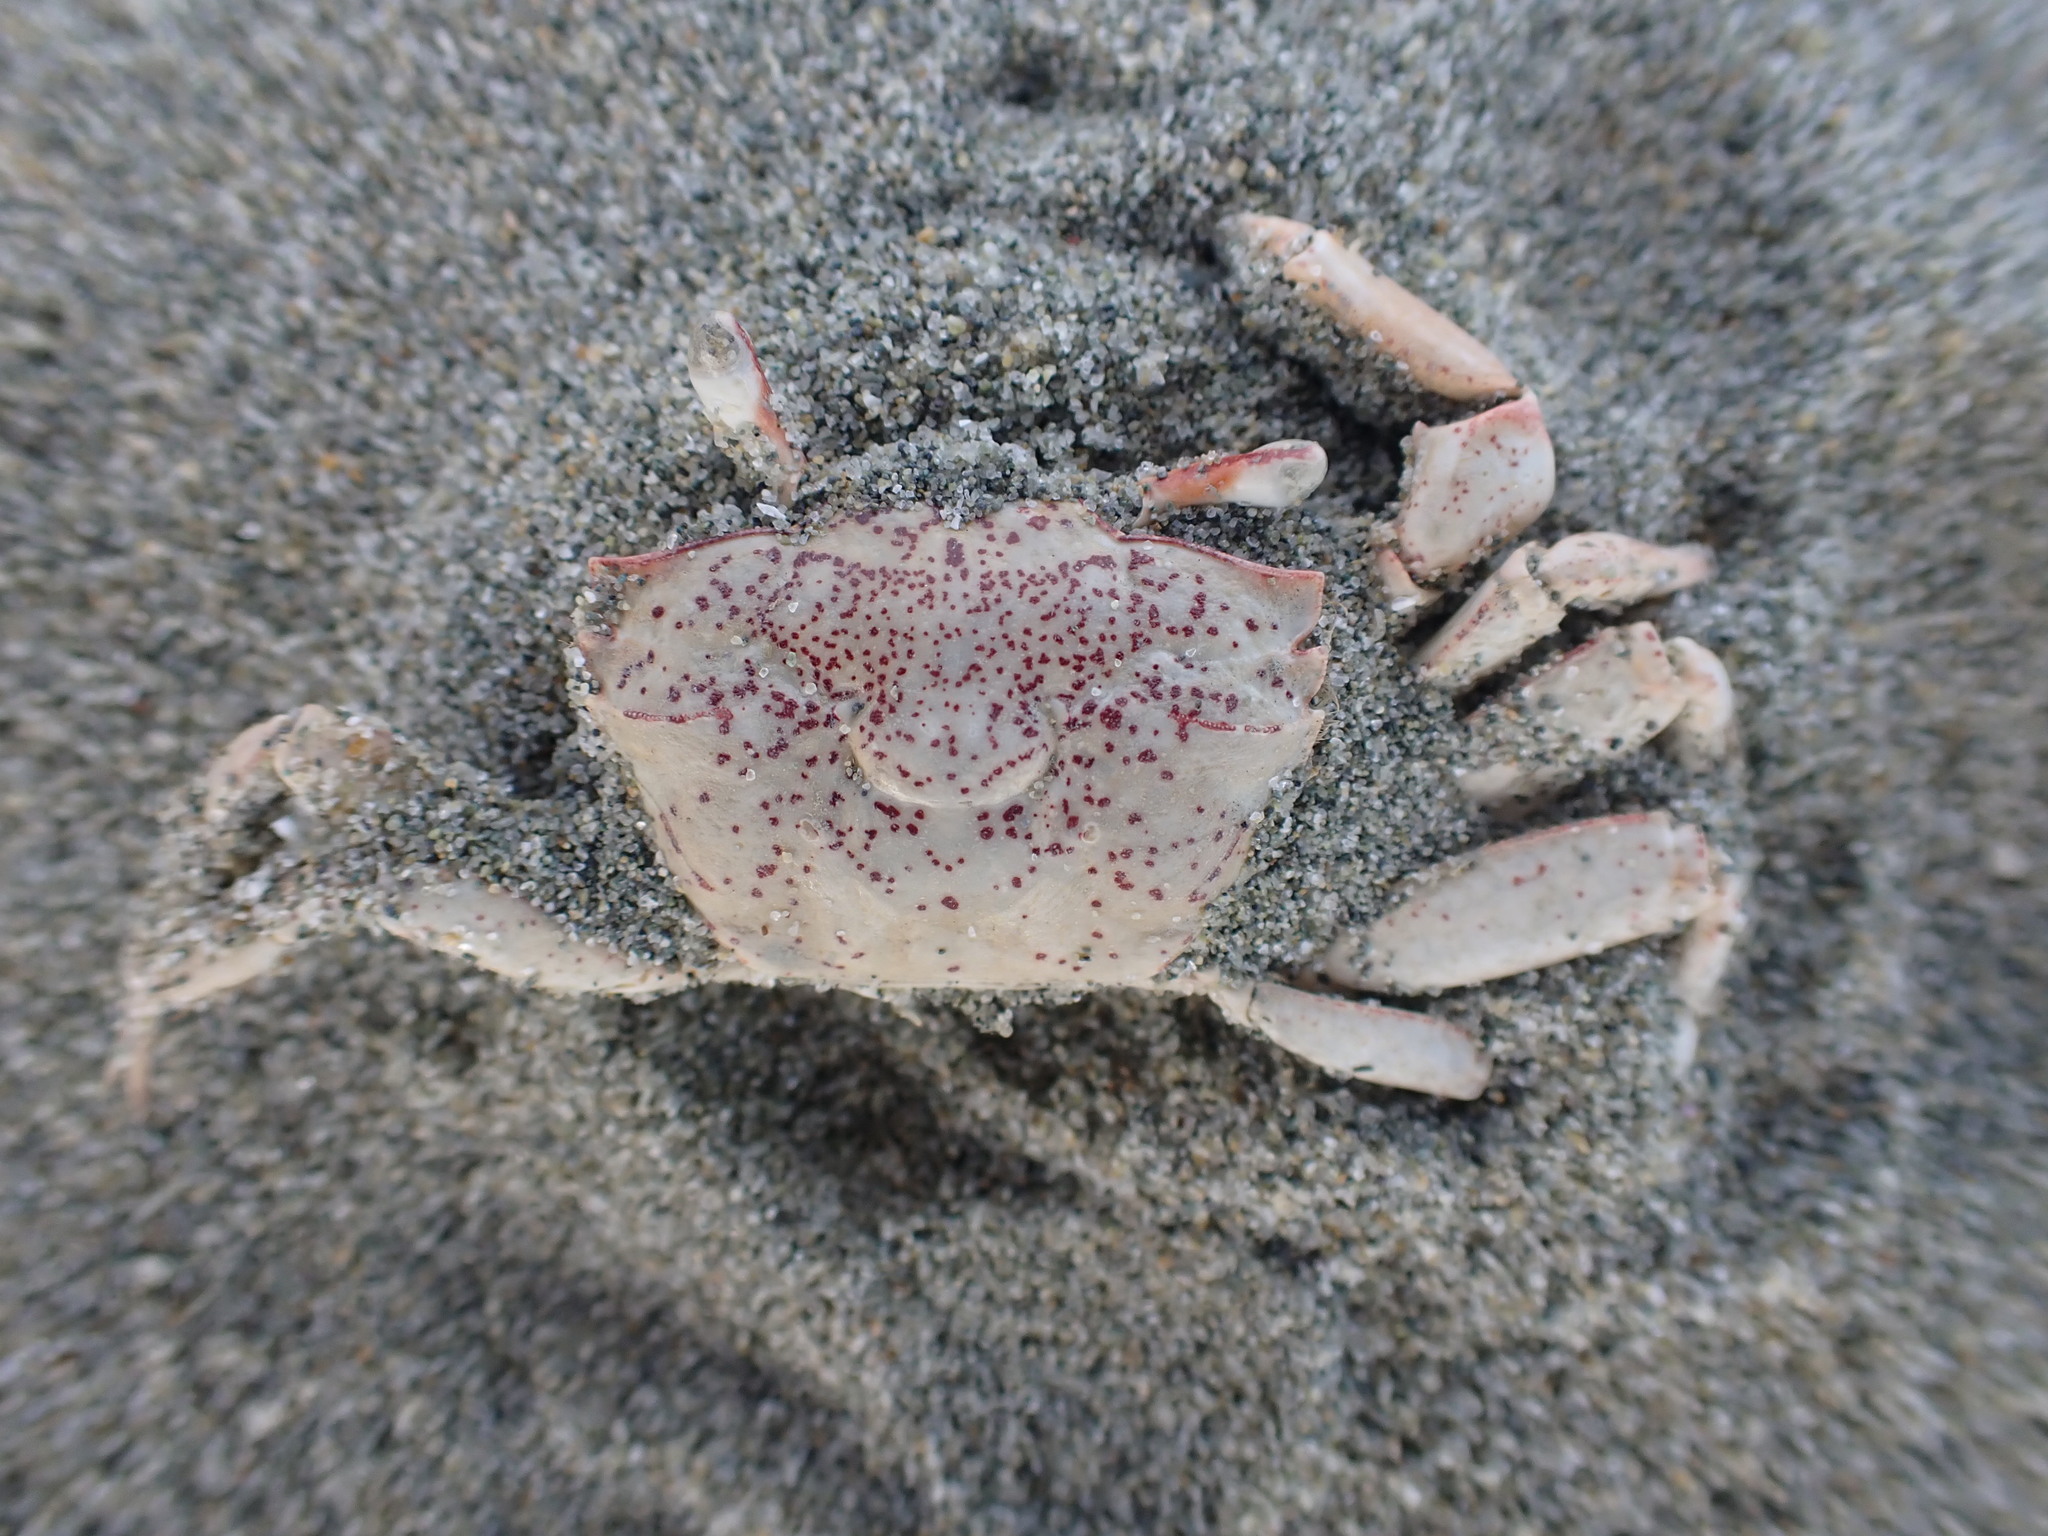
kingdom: Animalia
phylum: Arthropoda
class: Malacostraca
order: Decapoda
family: Macrophthalmidae
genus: Hemiplax
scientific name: Hemiplax hirtipes
